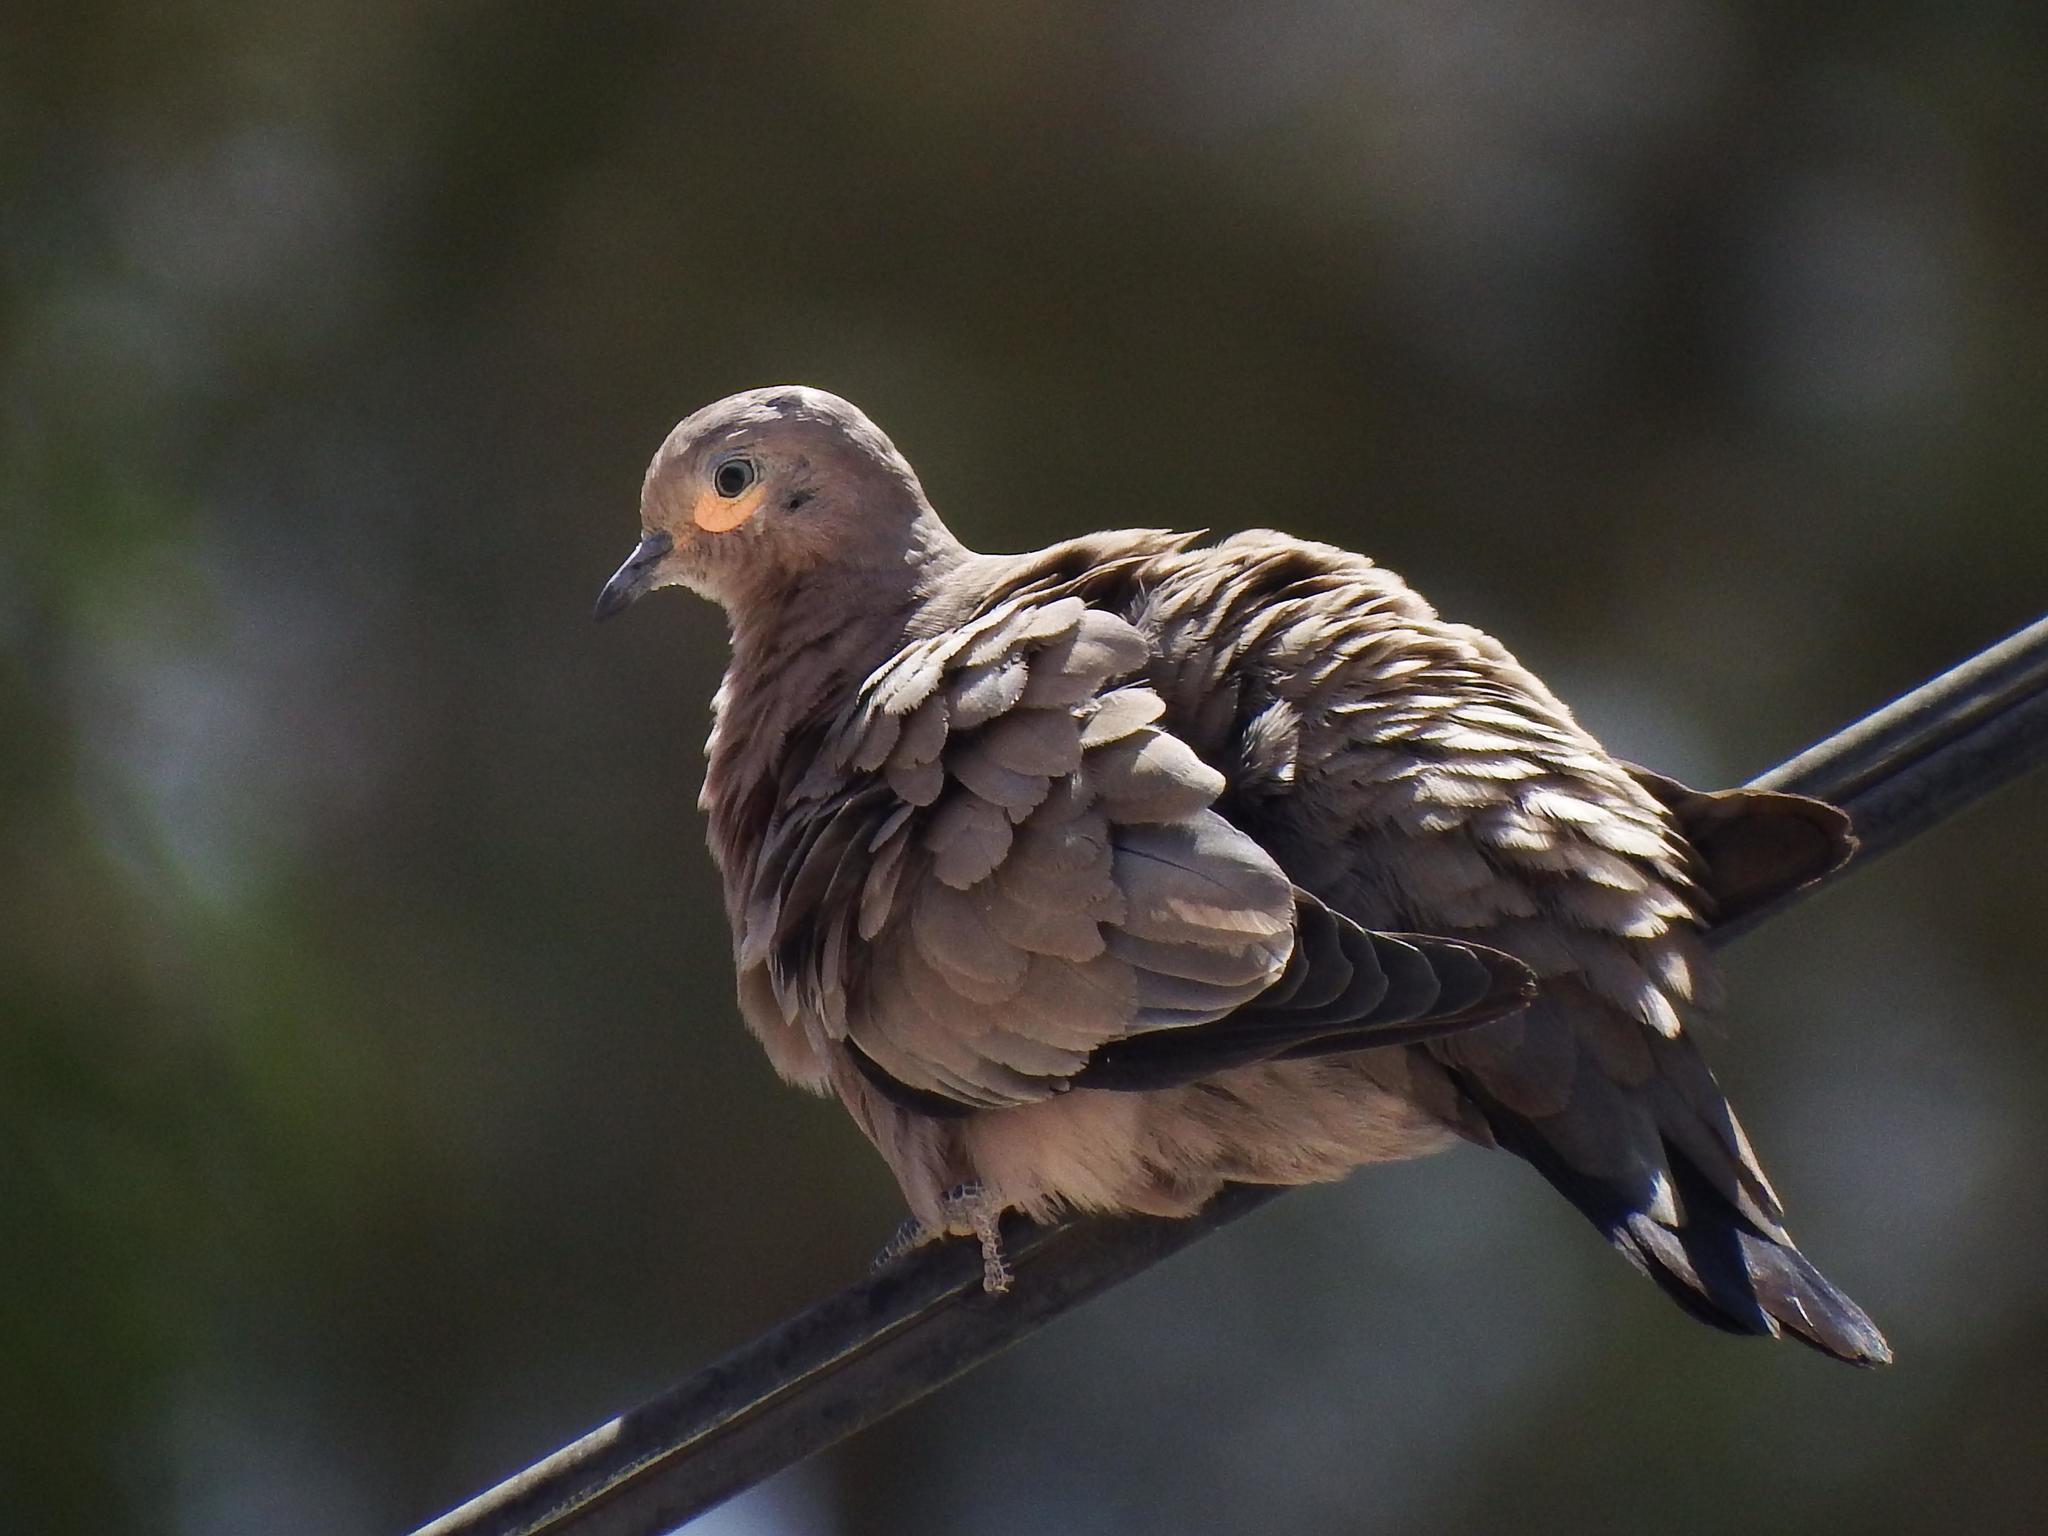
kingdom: Animalia
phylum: Chordata
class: Aves
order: Columbiformes
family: Columbidae
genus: Metriopelia
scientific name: Metriopelia melanoptera
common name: Black-winged ground dove
